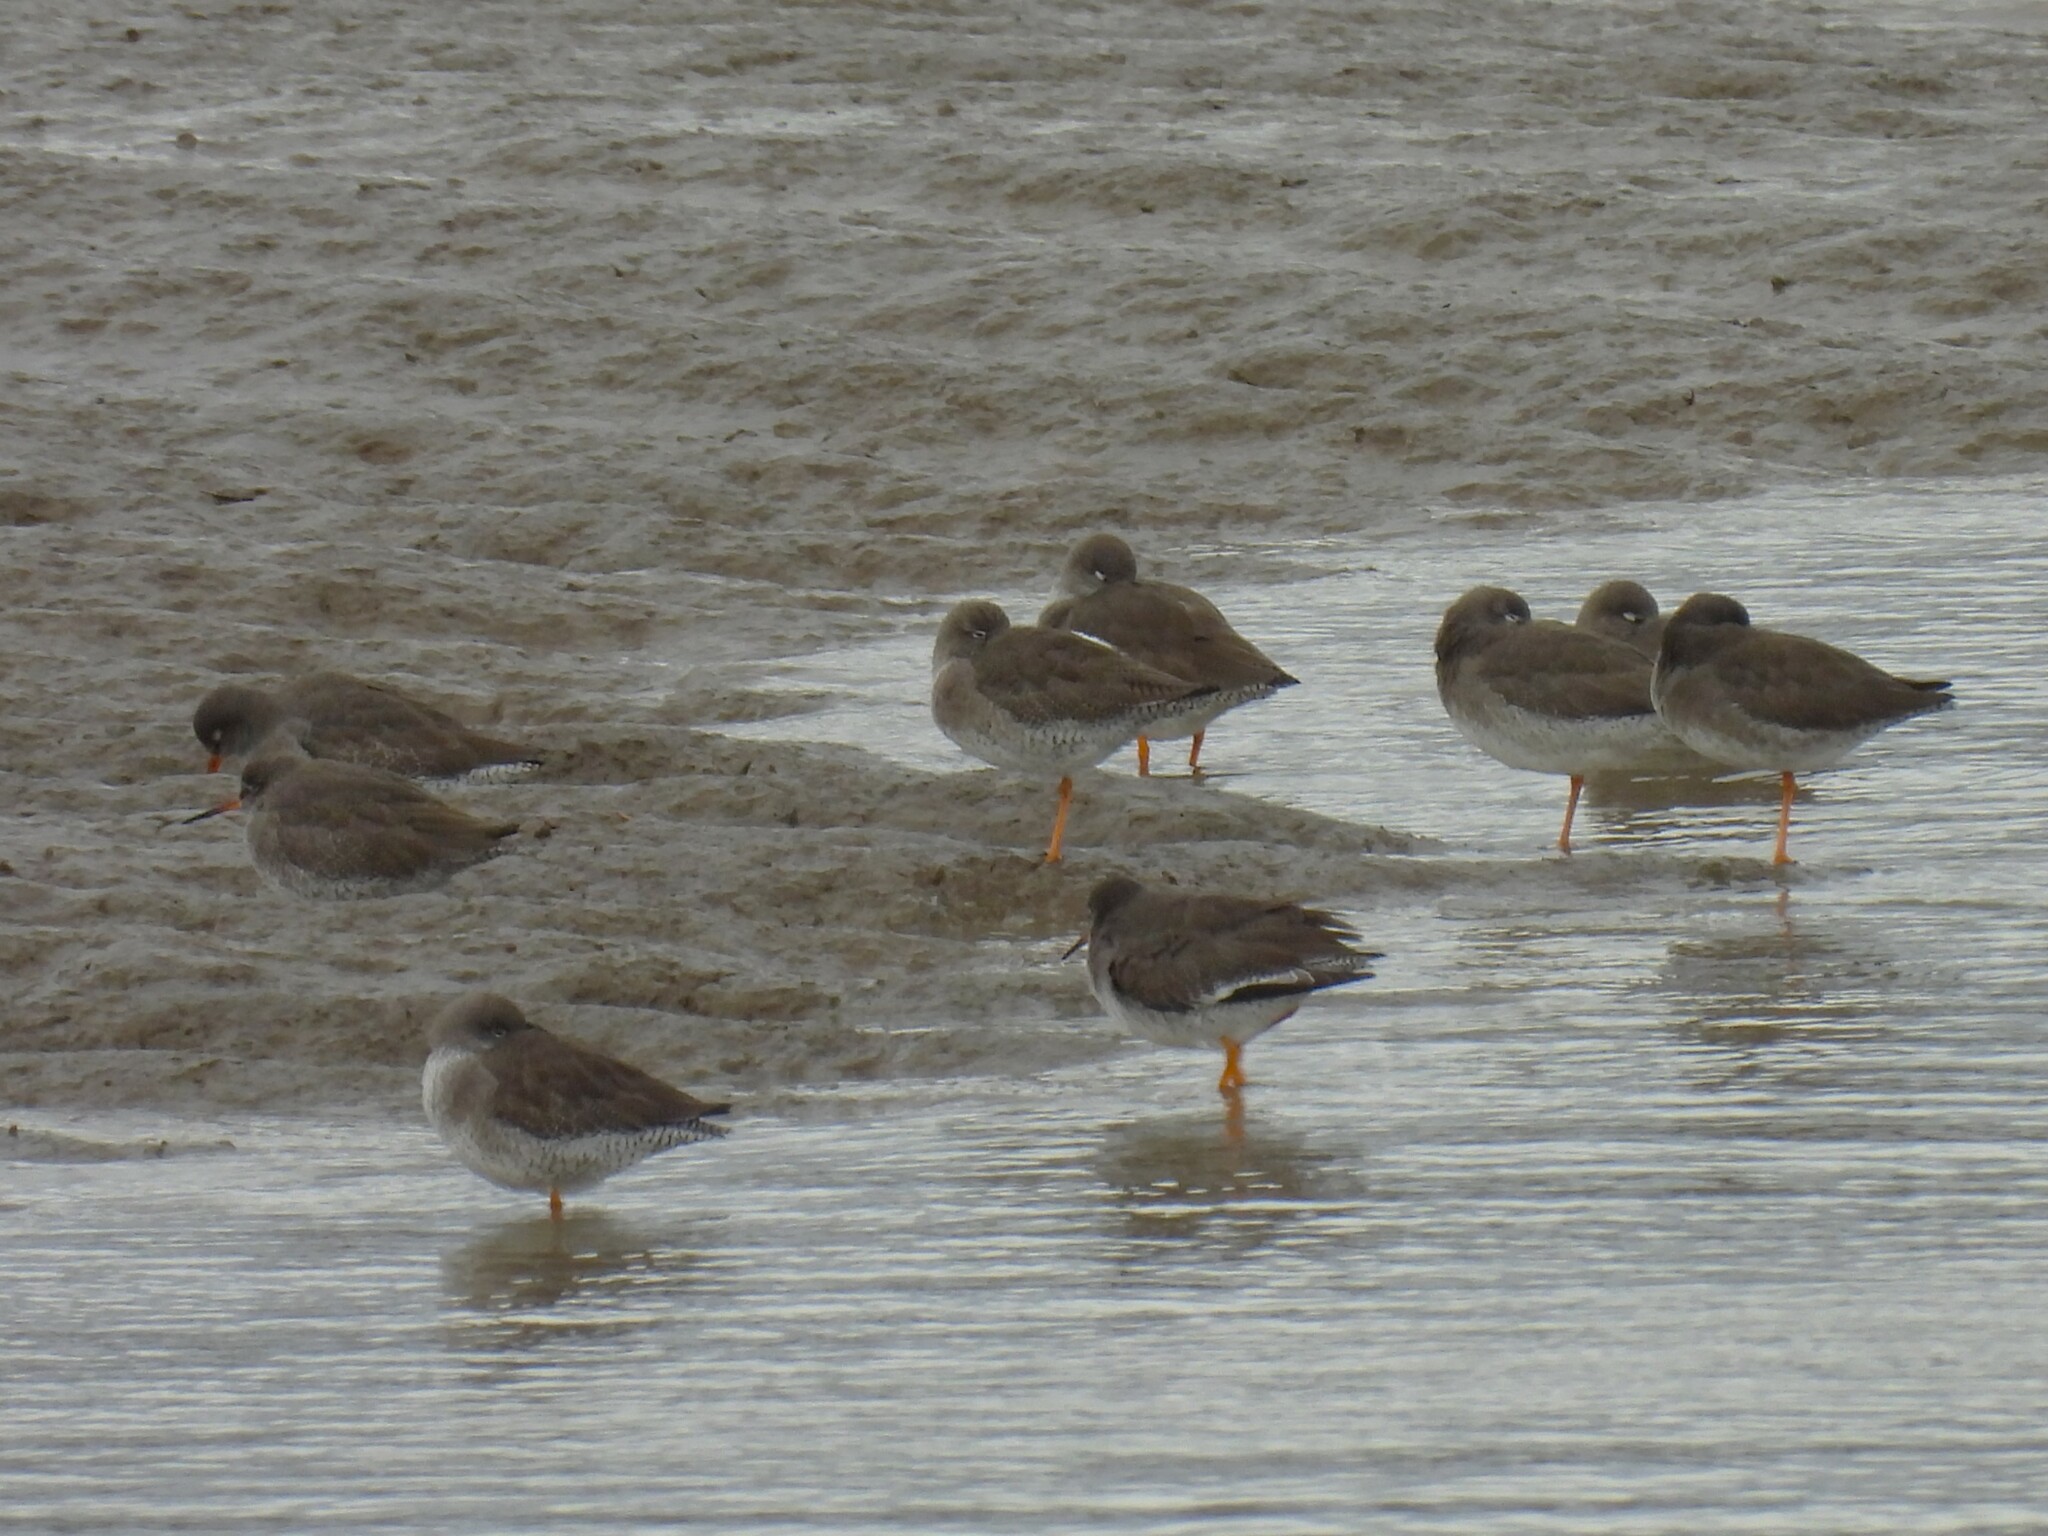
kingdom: Animalia
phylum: Chordata
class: Aves
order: Charadriiformes
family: Scolopacidae
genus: Tringa
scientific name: Tringa totanus
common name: Common redshank
